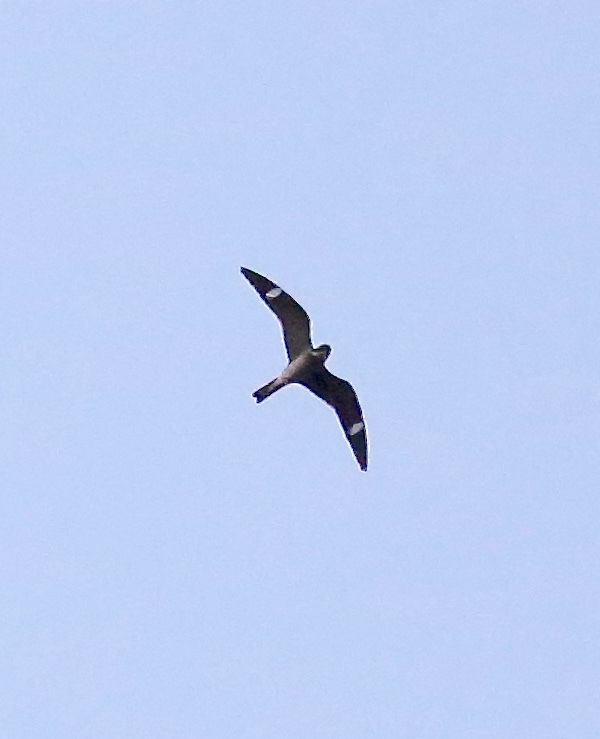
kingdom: Animalia
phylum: Chordata
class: Aves
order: Caprimulgiformes
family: Caprimulgidae
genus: Chordeiles
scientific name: Chordeiles minor
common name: Common nighthawk
